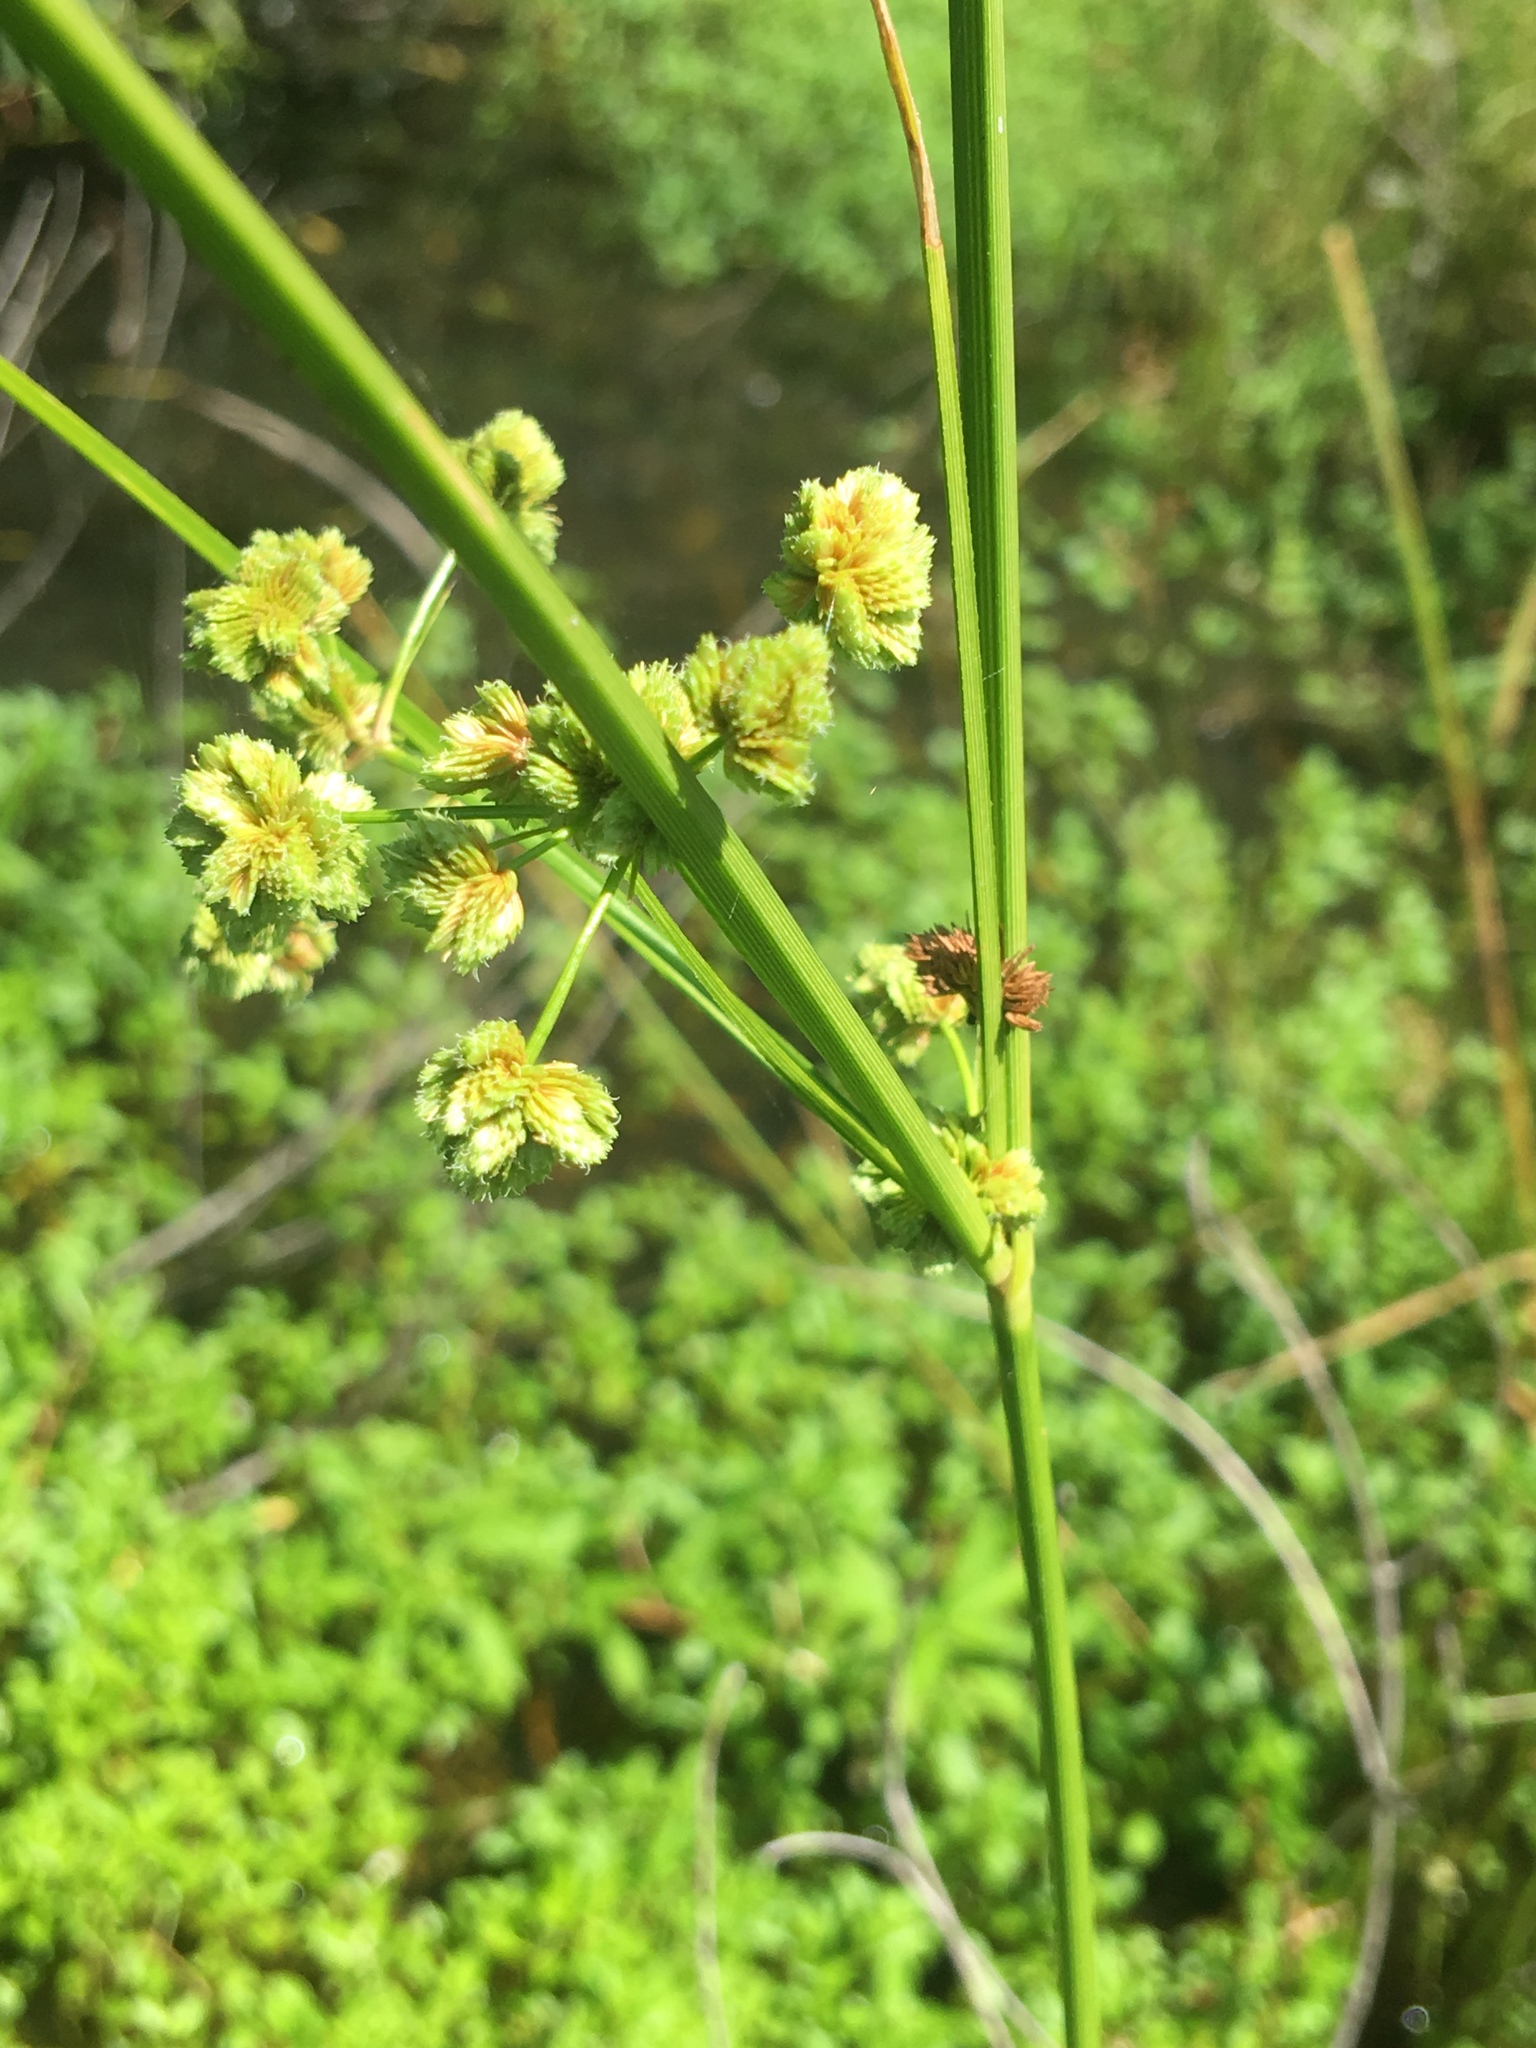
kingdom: Plantae
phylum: Tracheophyta
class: Liliopsida
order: Poales
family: Cyperaceae
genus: Cyperus
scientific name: Cyperus pseudovegetus
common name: Marsh flat sedge
